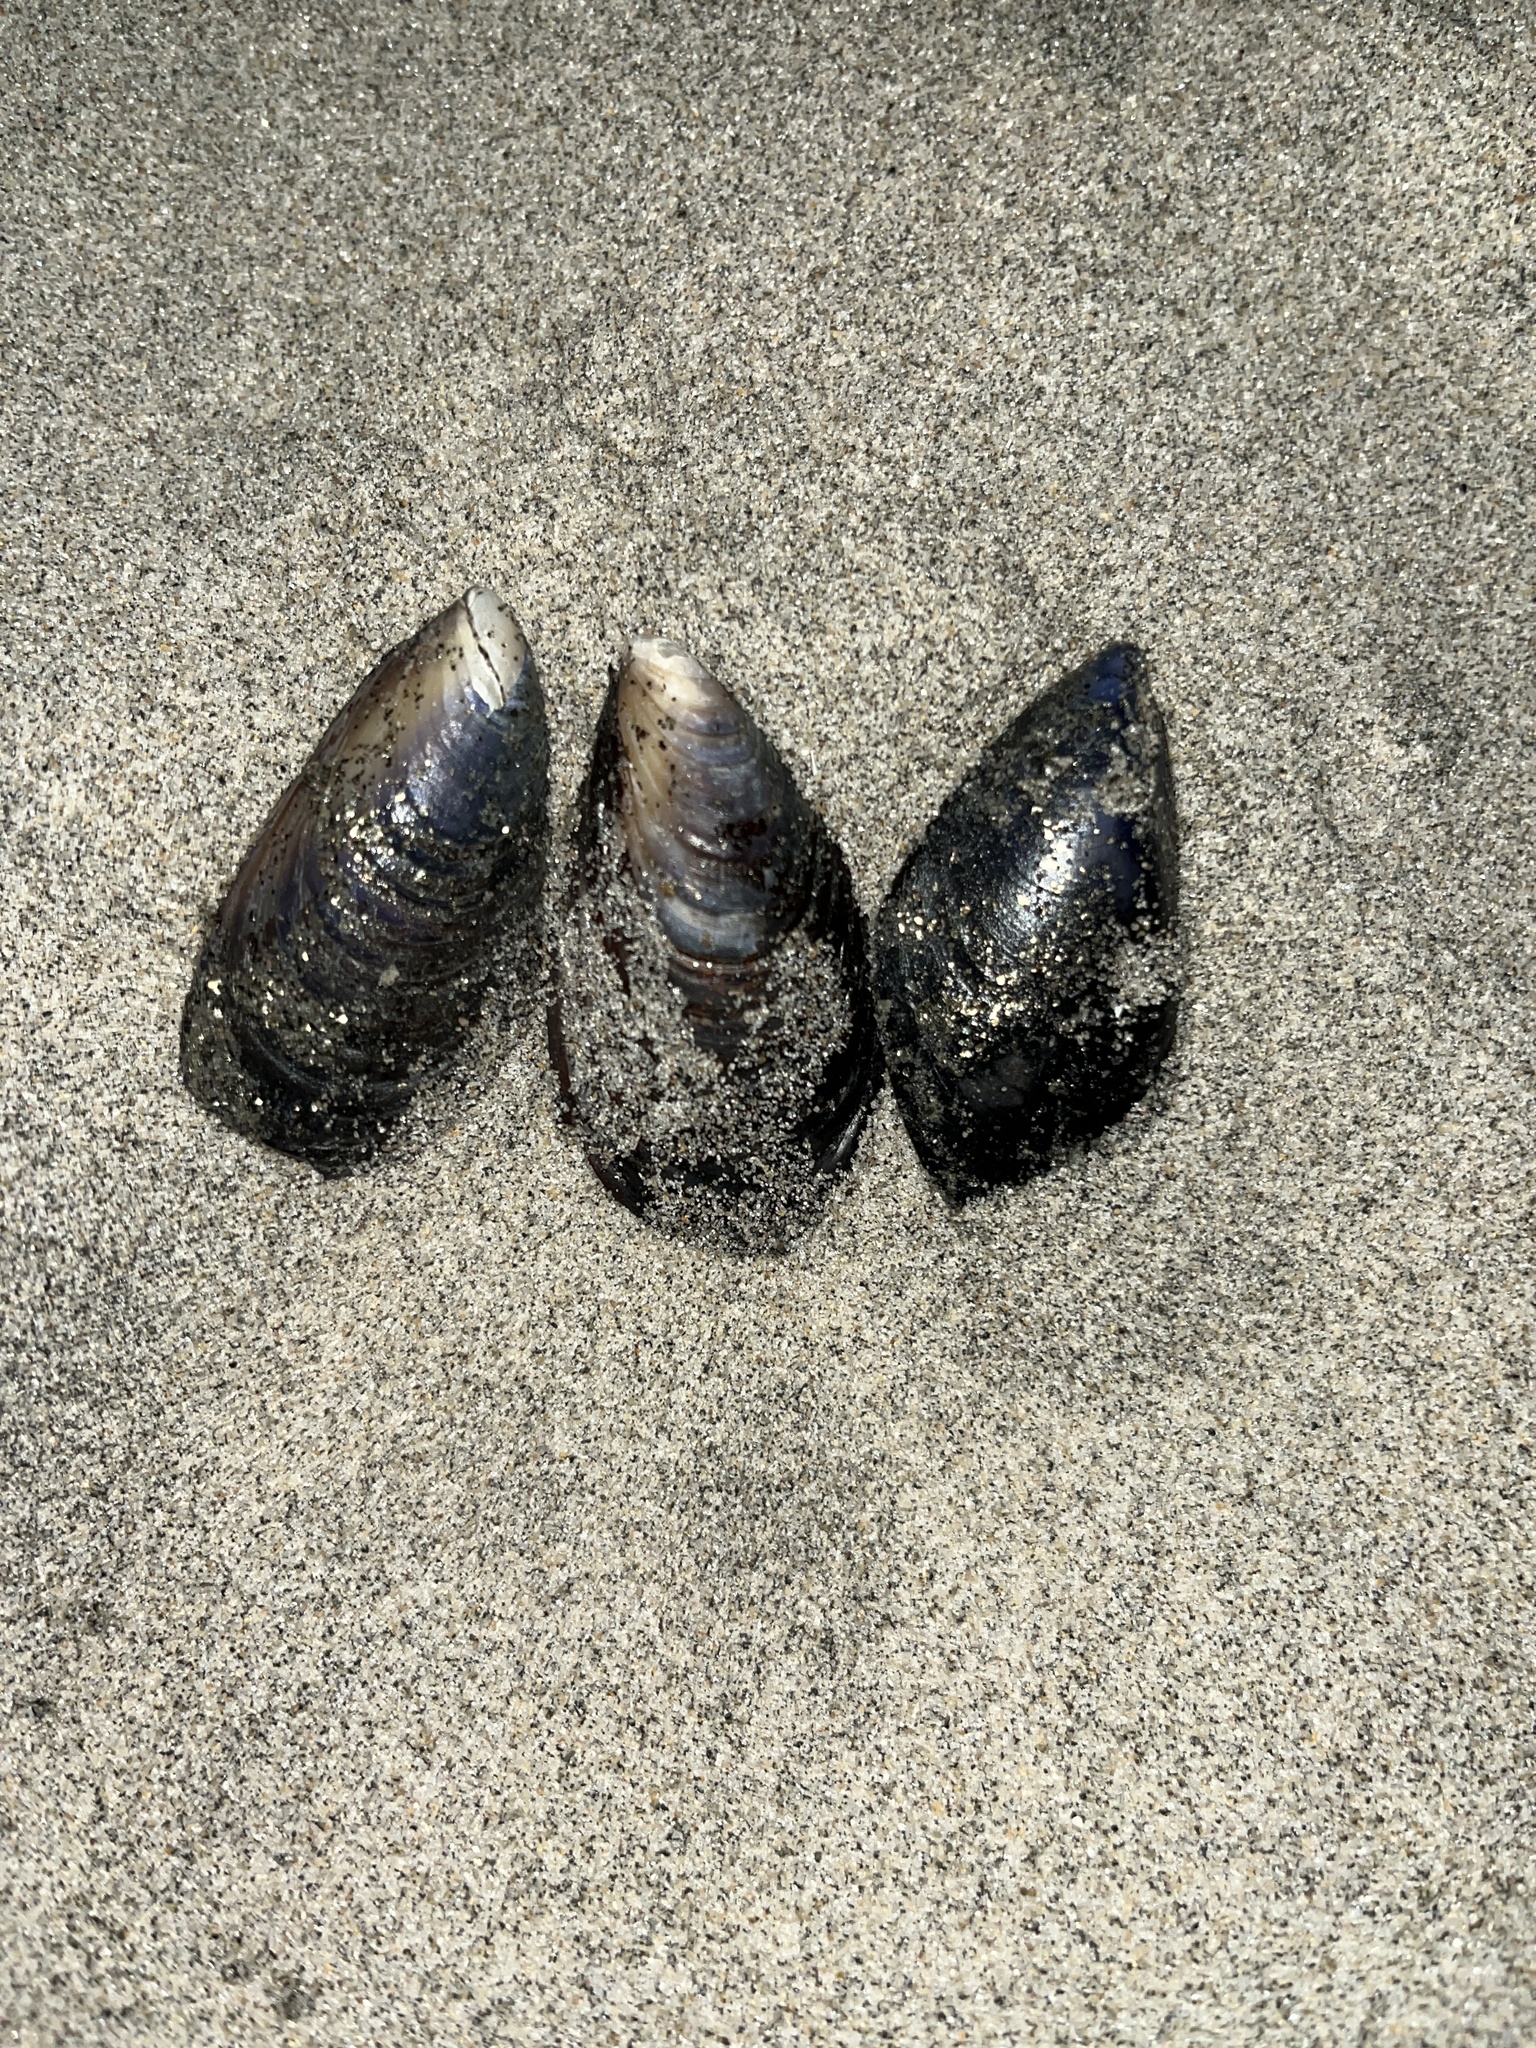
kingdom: Animalia
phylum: Mollusca
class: Bivalvia
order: Mytilida
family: Mytilidae
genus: Mytilus
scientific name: Mytilus galloprovincialis
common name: Mediterranean mussel
